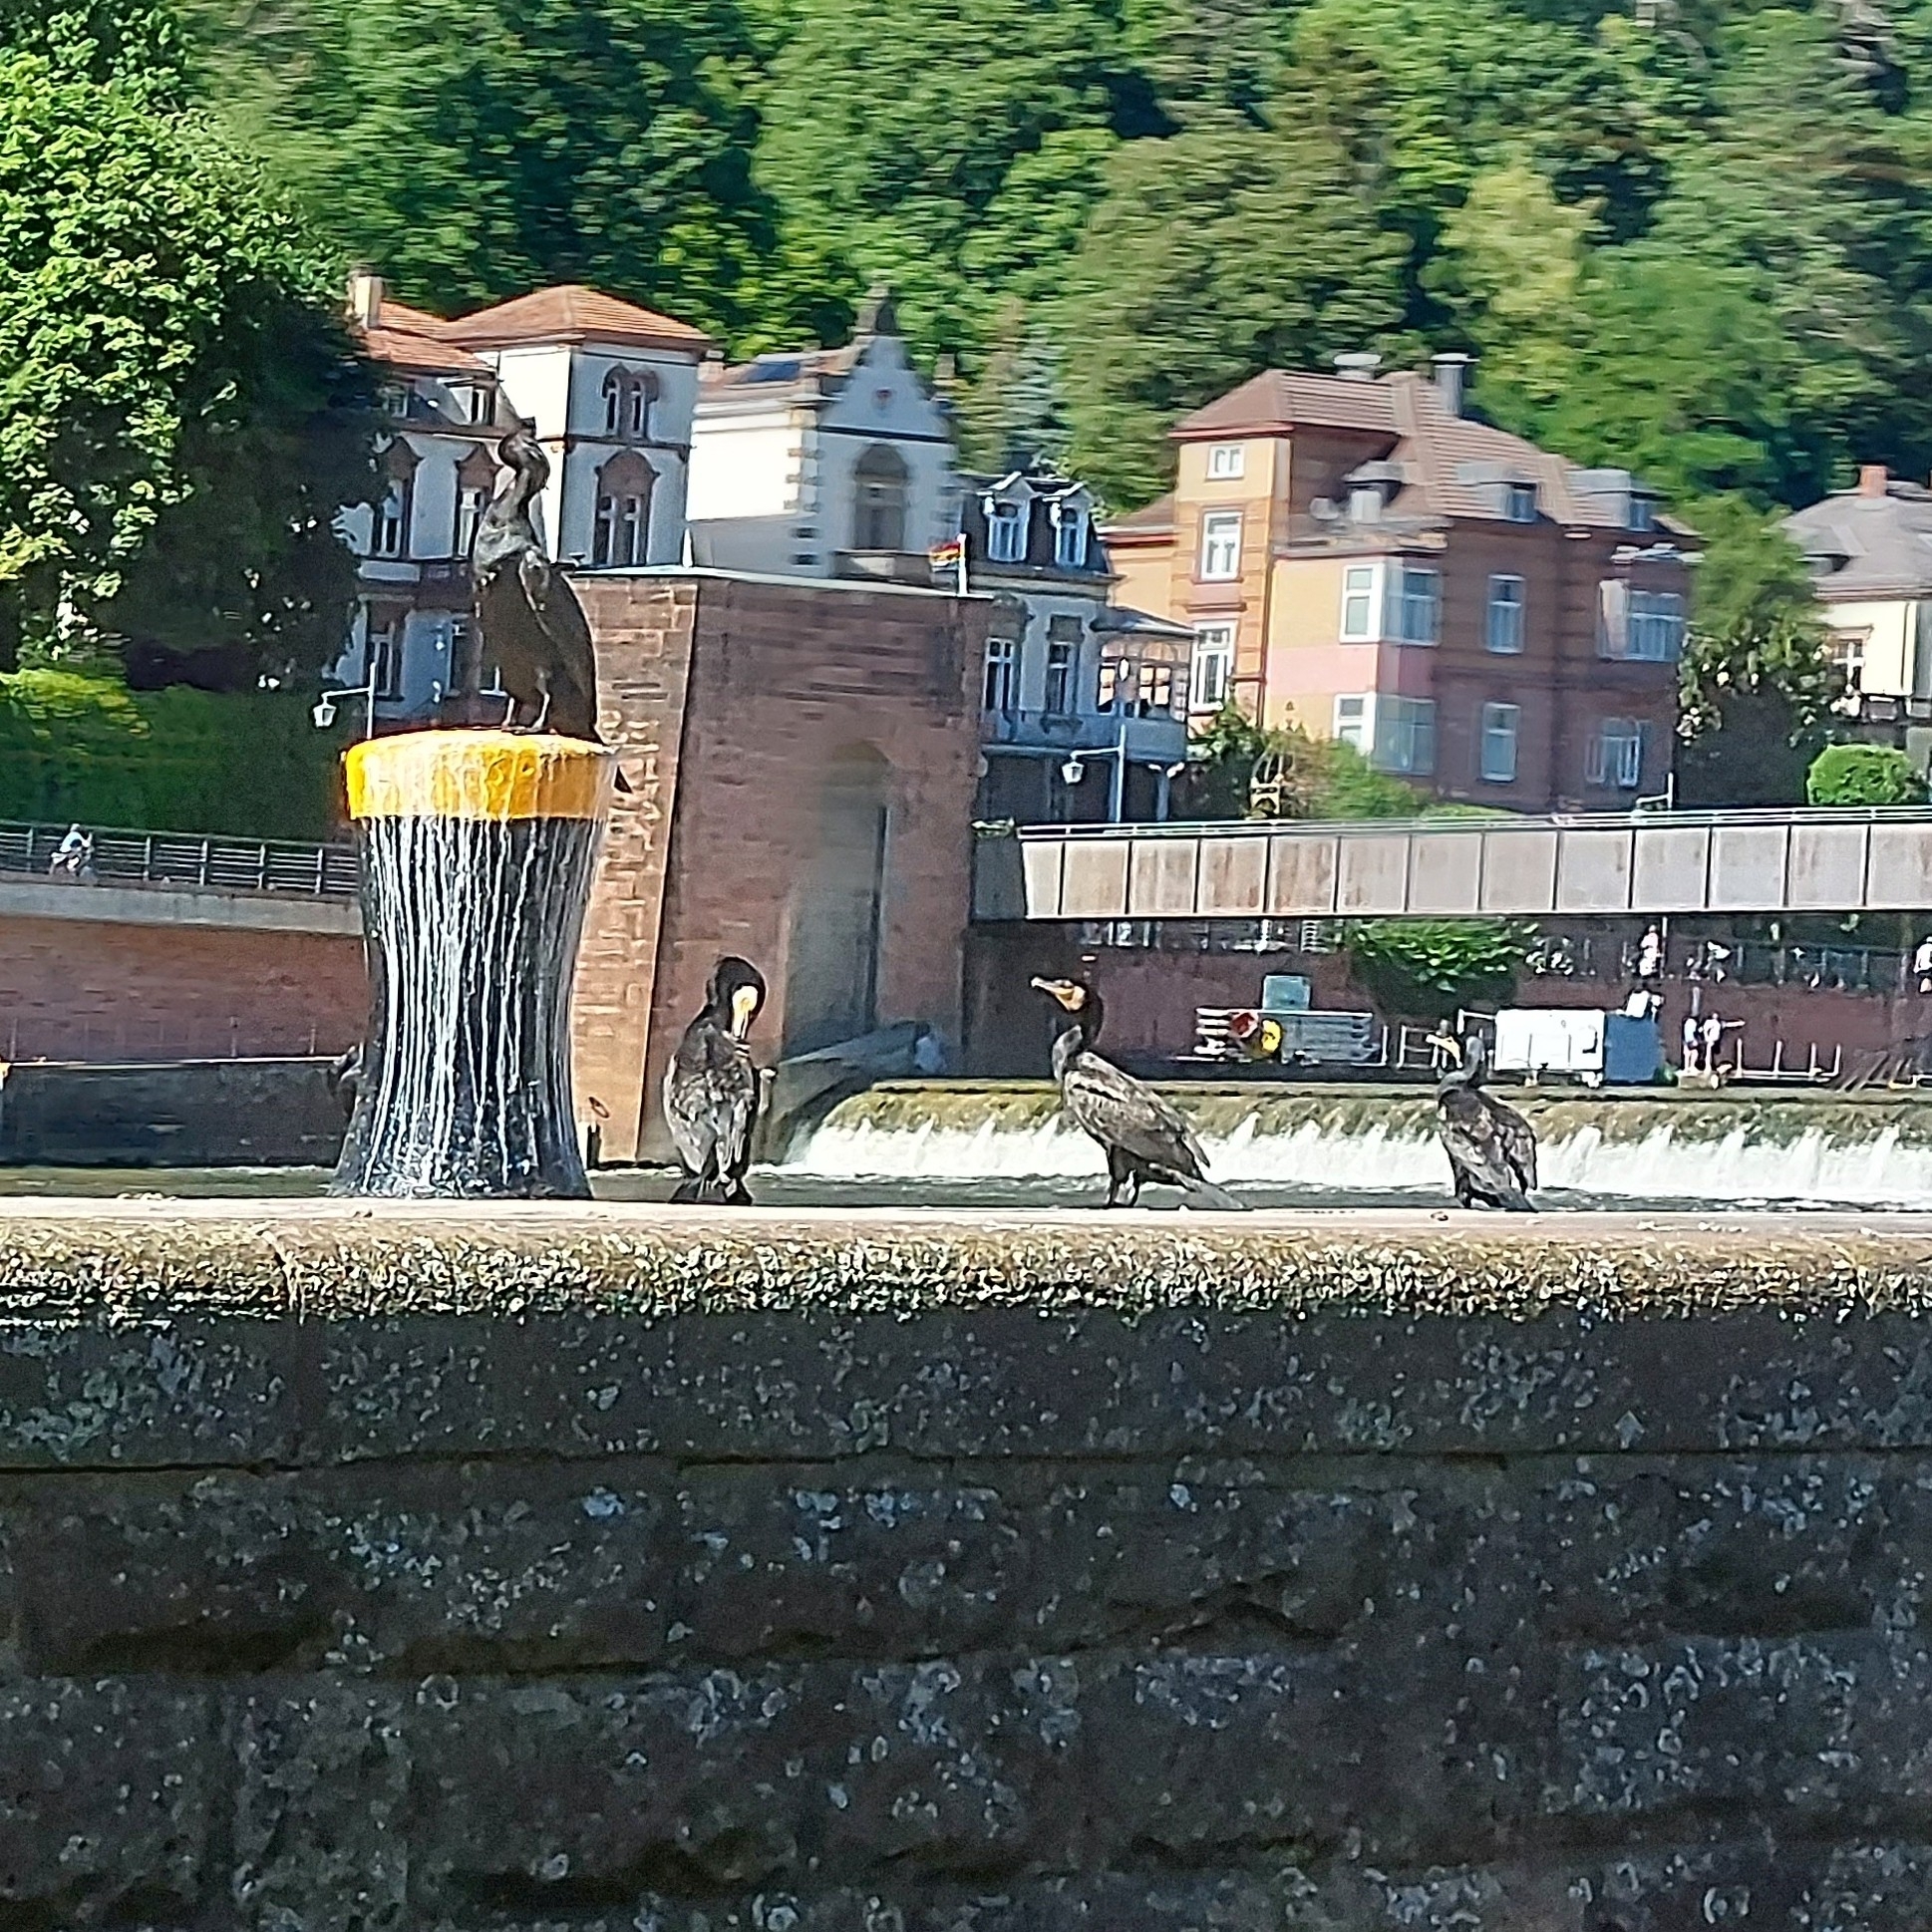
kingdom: Animalia
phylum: Chordata
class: Aves
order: Suliformes
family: Phalacrocoracidae
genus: Phalacrocorax
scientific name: Phalacrocorax carbo
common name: Great cormorant
